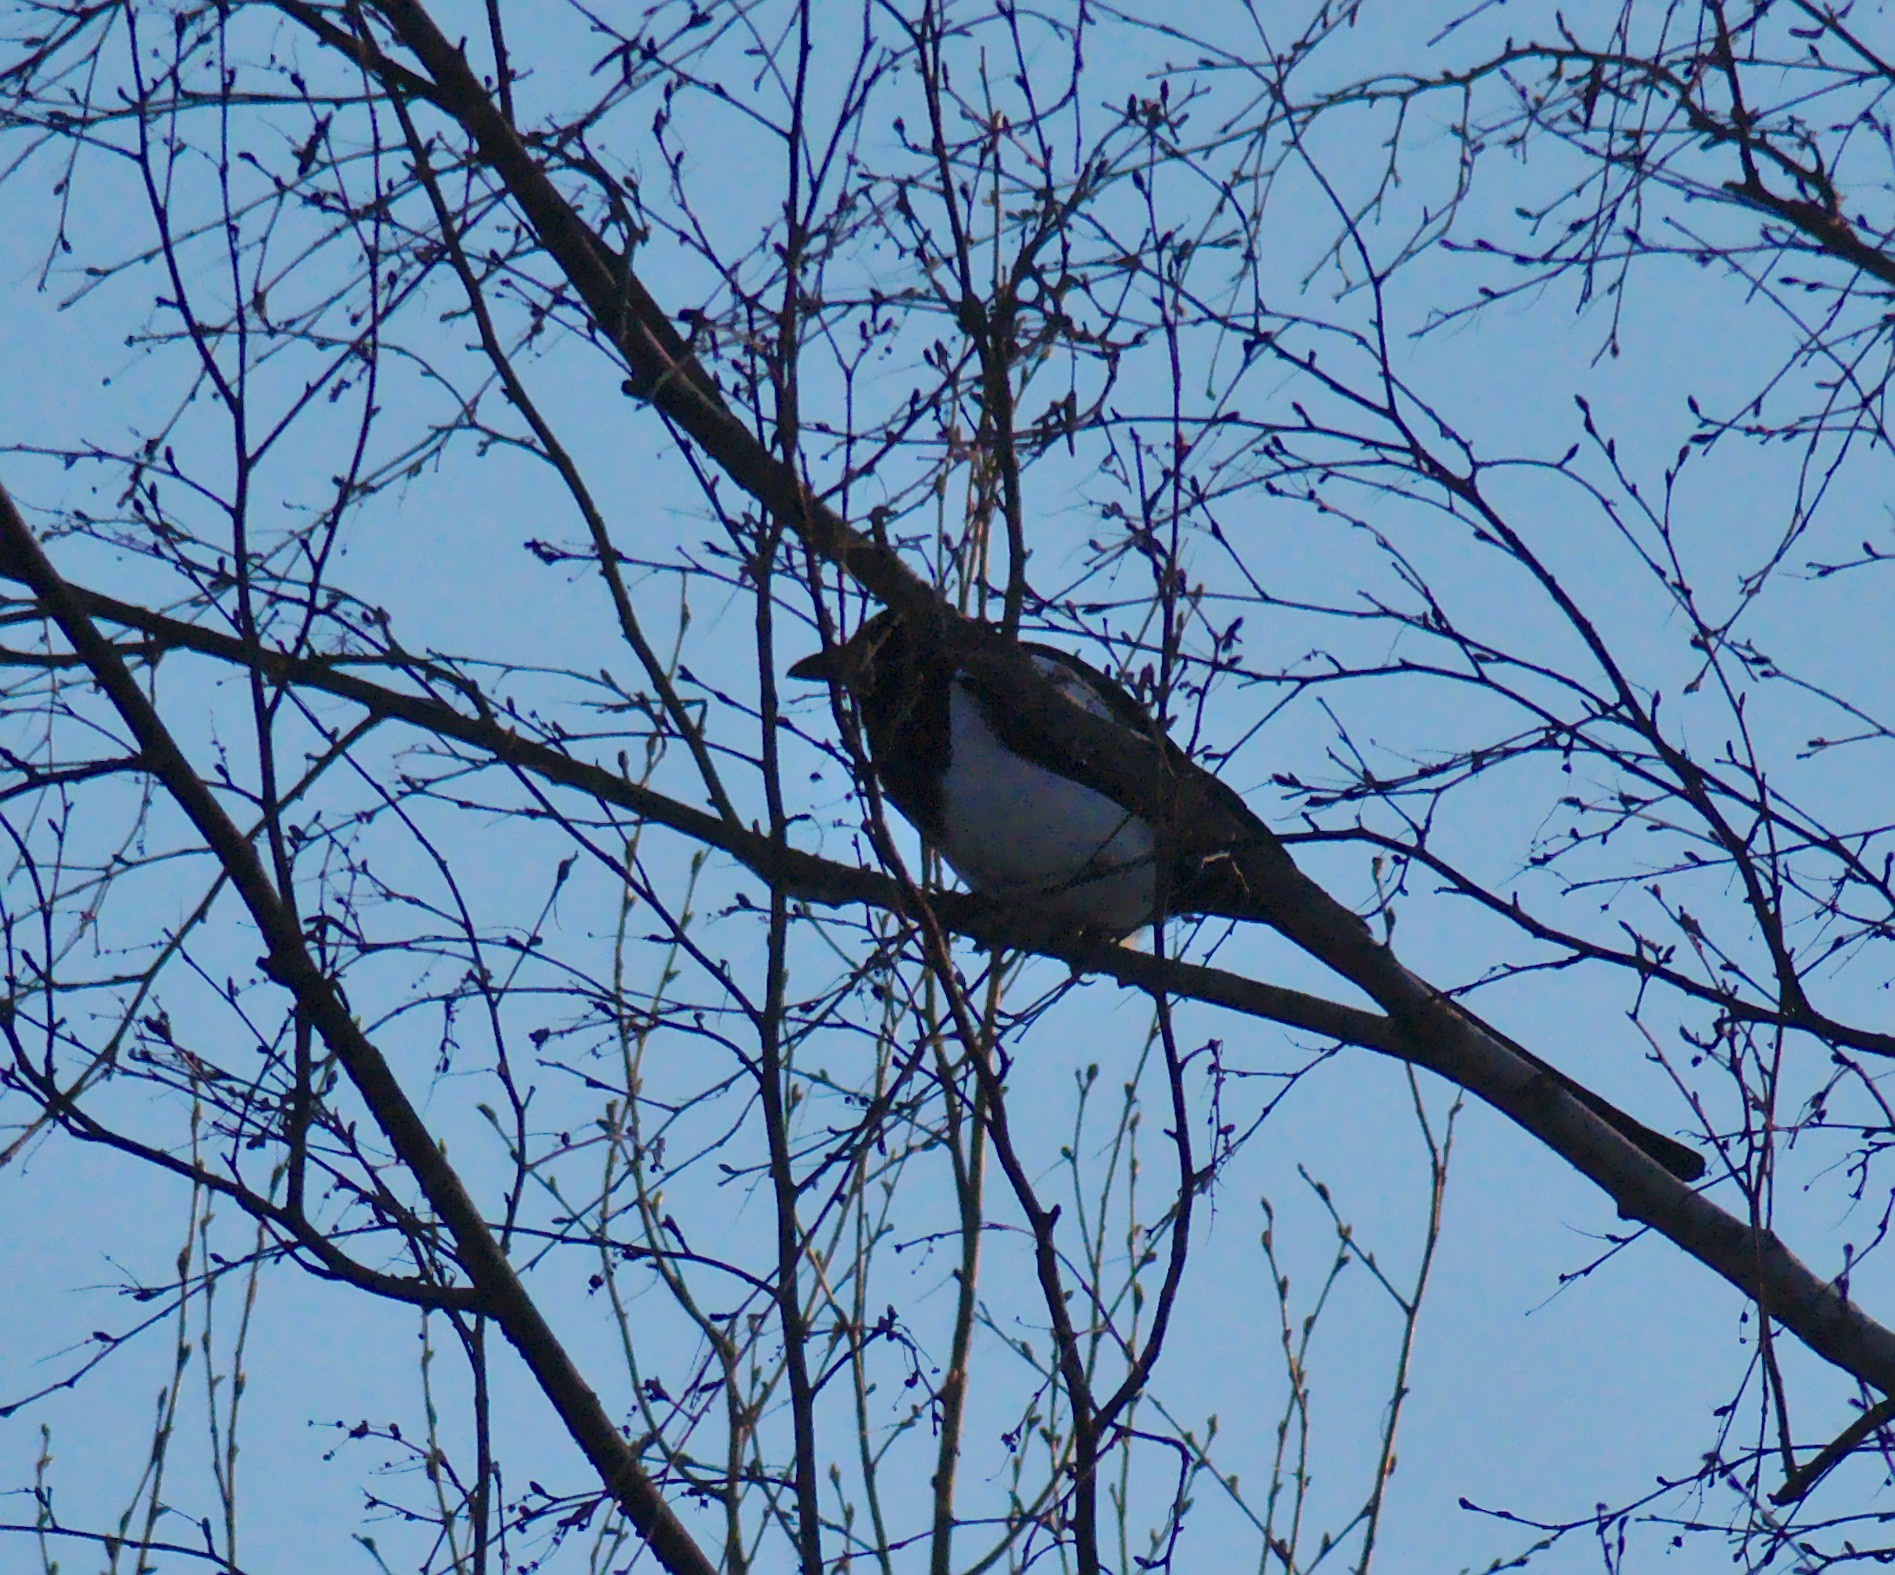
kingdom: Animalia
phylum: Chordata
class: Aves
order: Passeriformes
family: Corvidae
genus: Pica
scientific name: Pica pica
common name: Eurasian magpie
